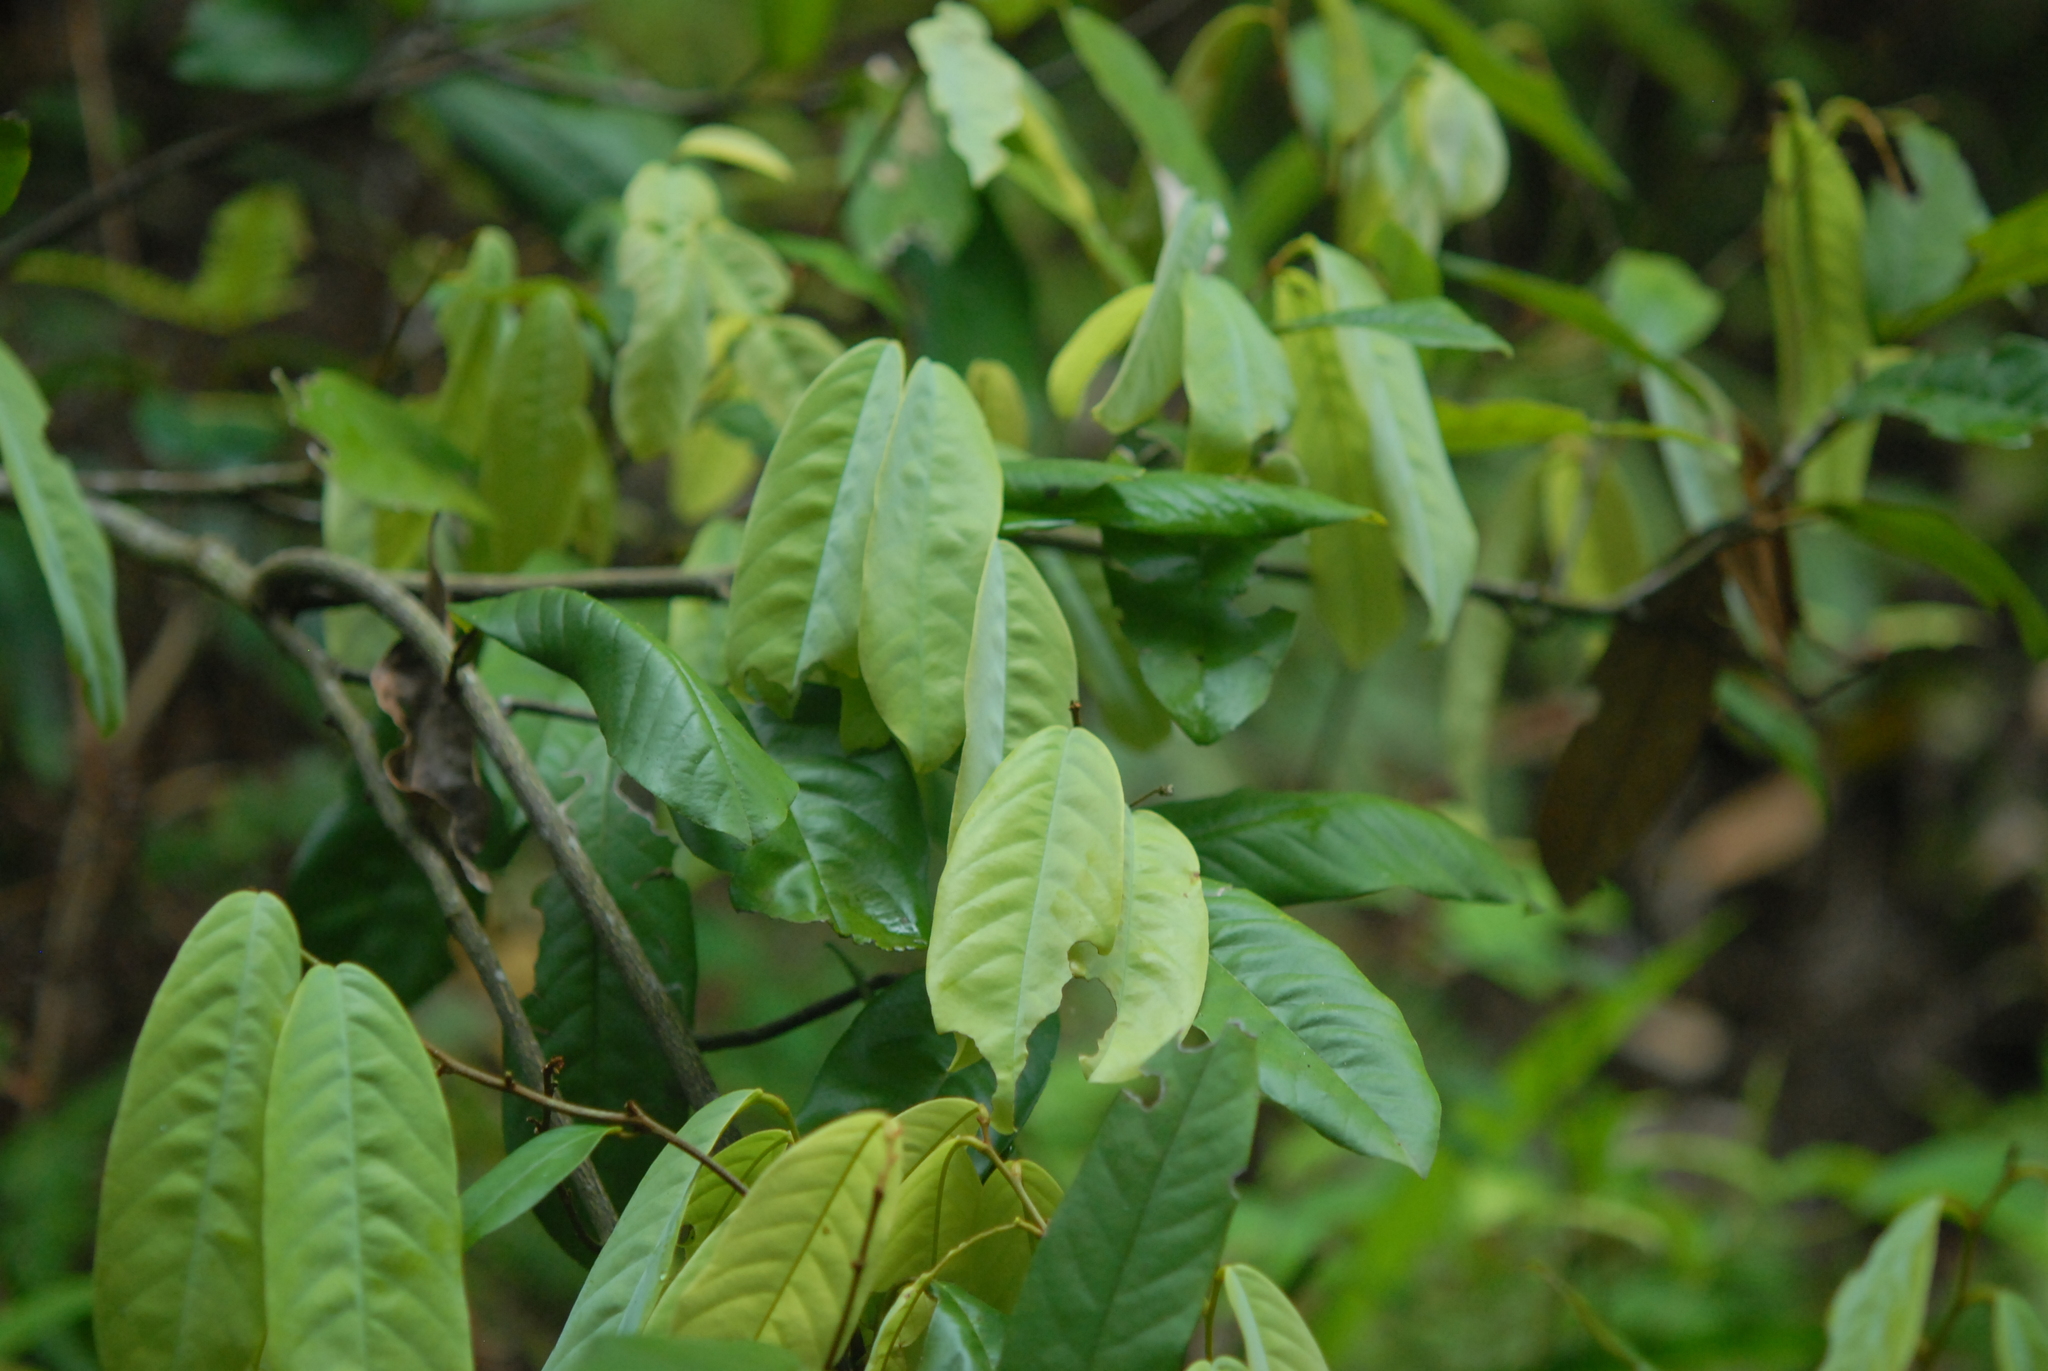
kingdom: Plantae
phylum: Tracheophyta
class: Magnoliopsida
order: Magnoliales
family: Annonaceae
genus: Fissistigma
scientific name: Fissistigma glaucescens
